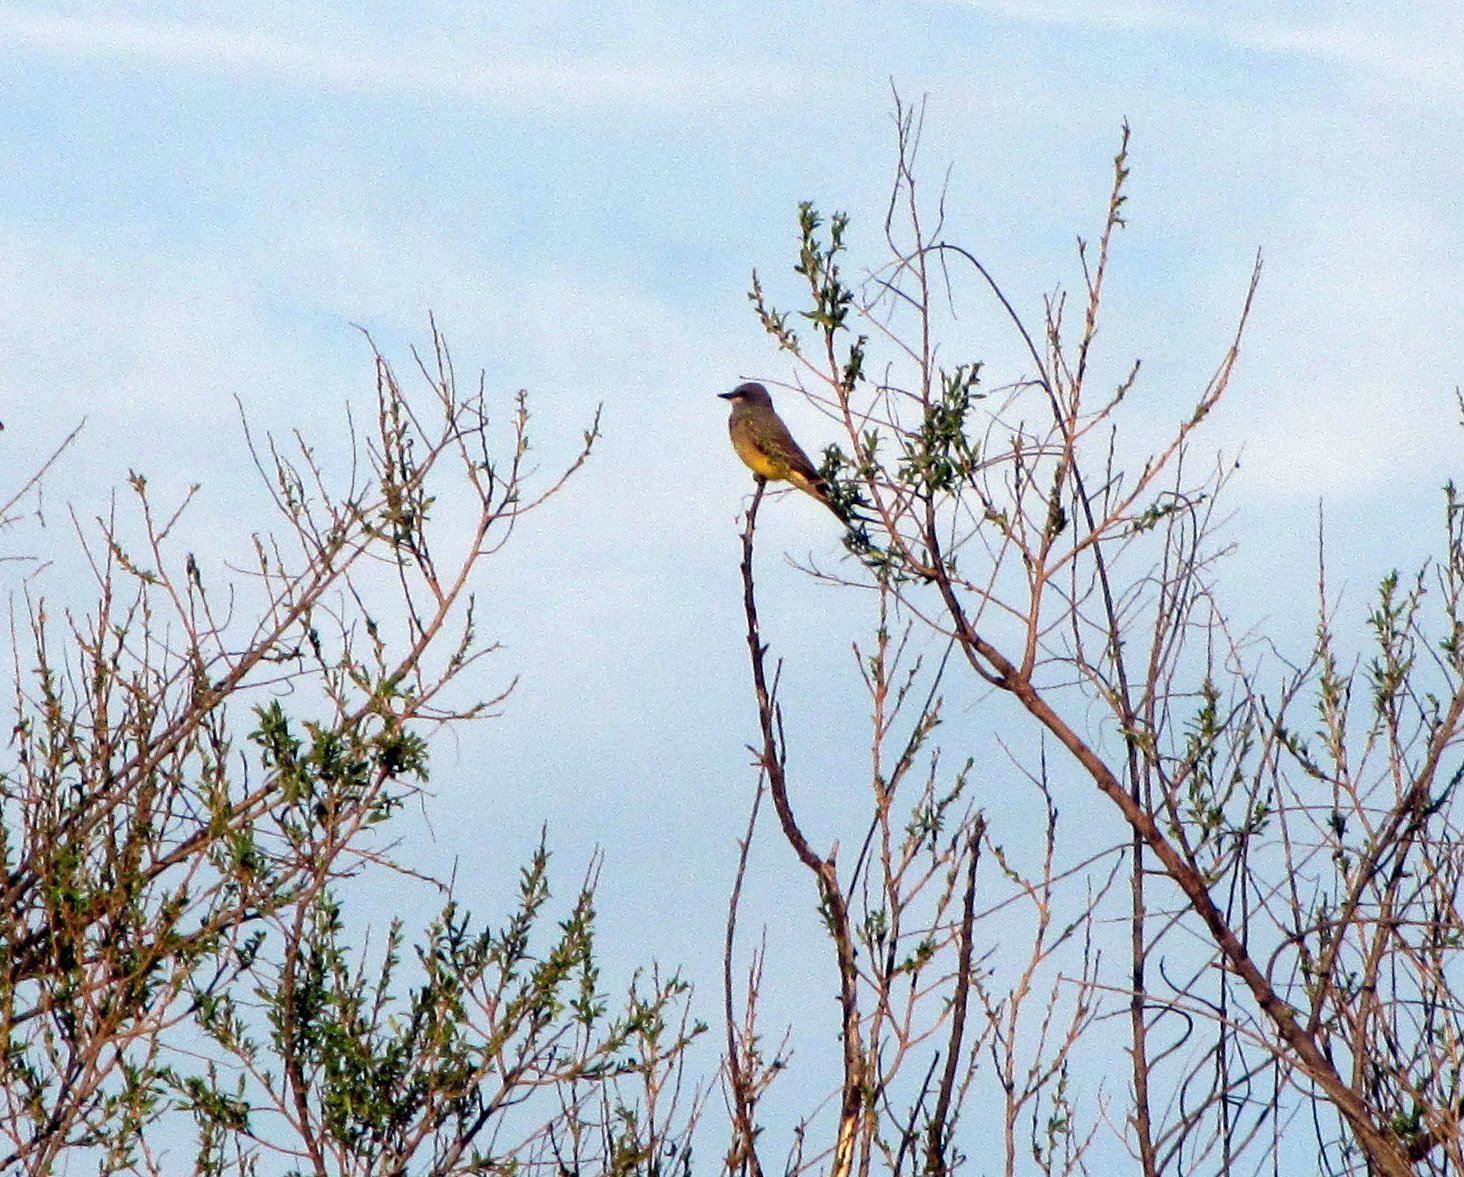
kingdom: Animalia
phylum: Chordata
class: Aves
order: Passeriformes
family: Tyrannidae
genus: Tyrannus
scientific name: Tyrannus vociferans
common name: Cassin's kingbird
